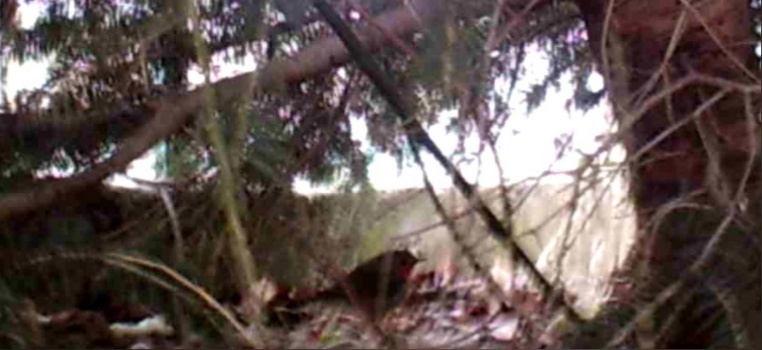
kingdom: Animalia
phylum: Chordata
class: Aves
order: Passeriformes
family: Muscicapidae
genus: Erithacus
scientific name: Erithacus rubecula
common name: European robin
